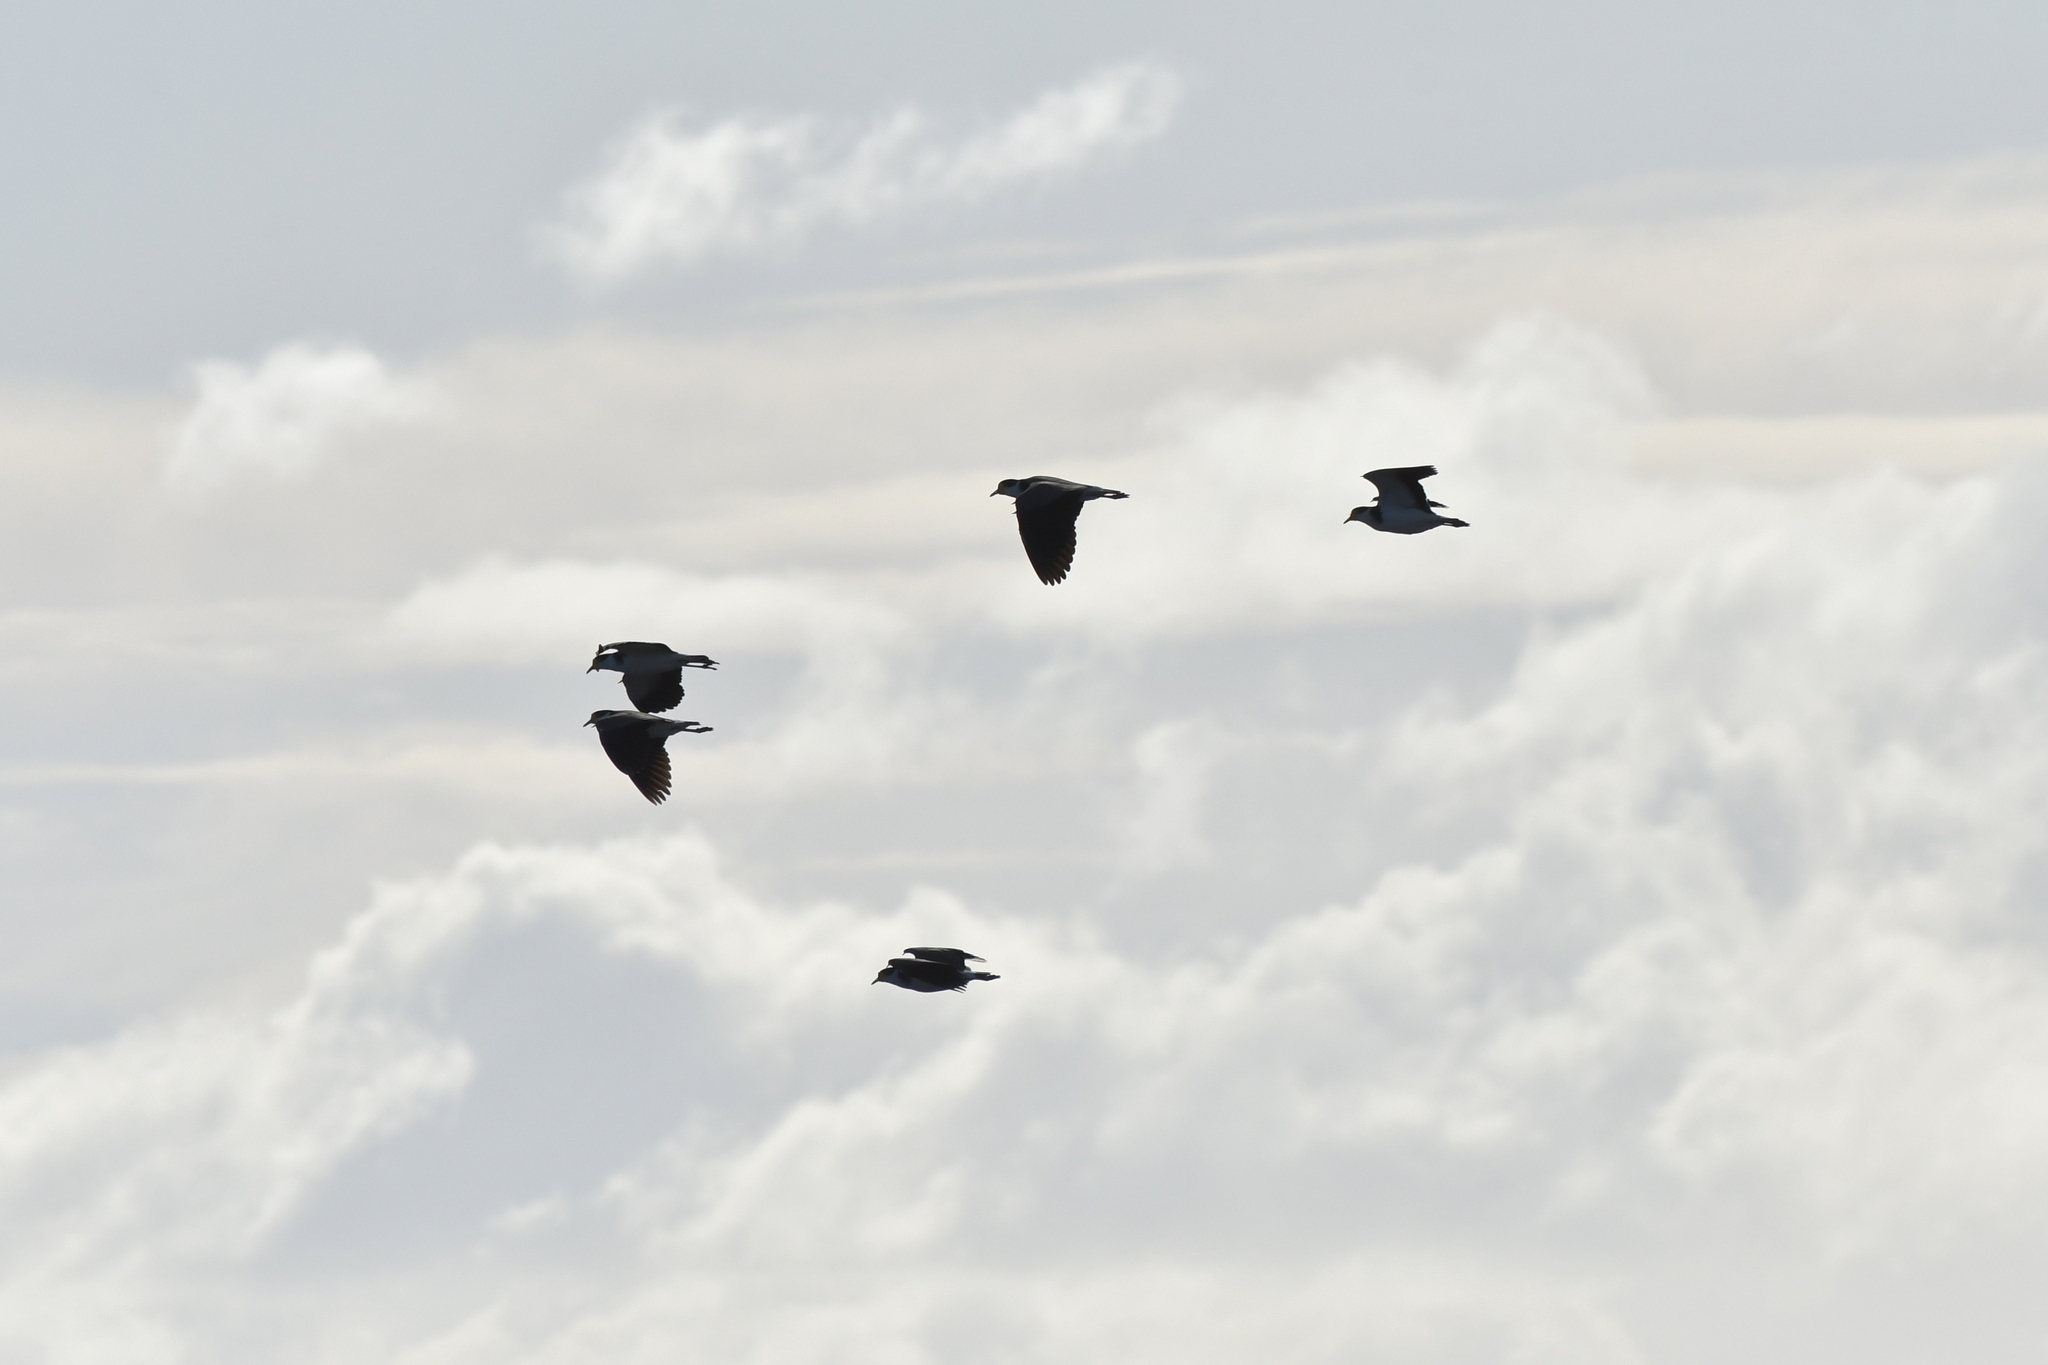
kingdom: Animalia
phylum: Chordata
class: Aves
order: Charadriiformes
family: Charadriidae
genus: Vanellus
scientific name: Vanellus miles
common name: Masked lapwing
